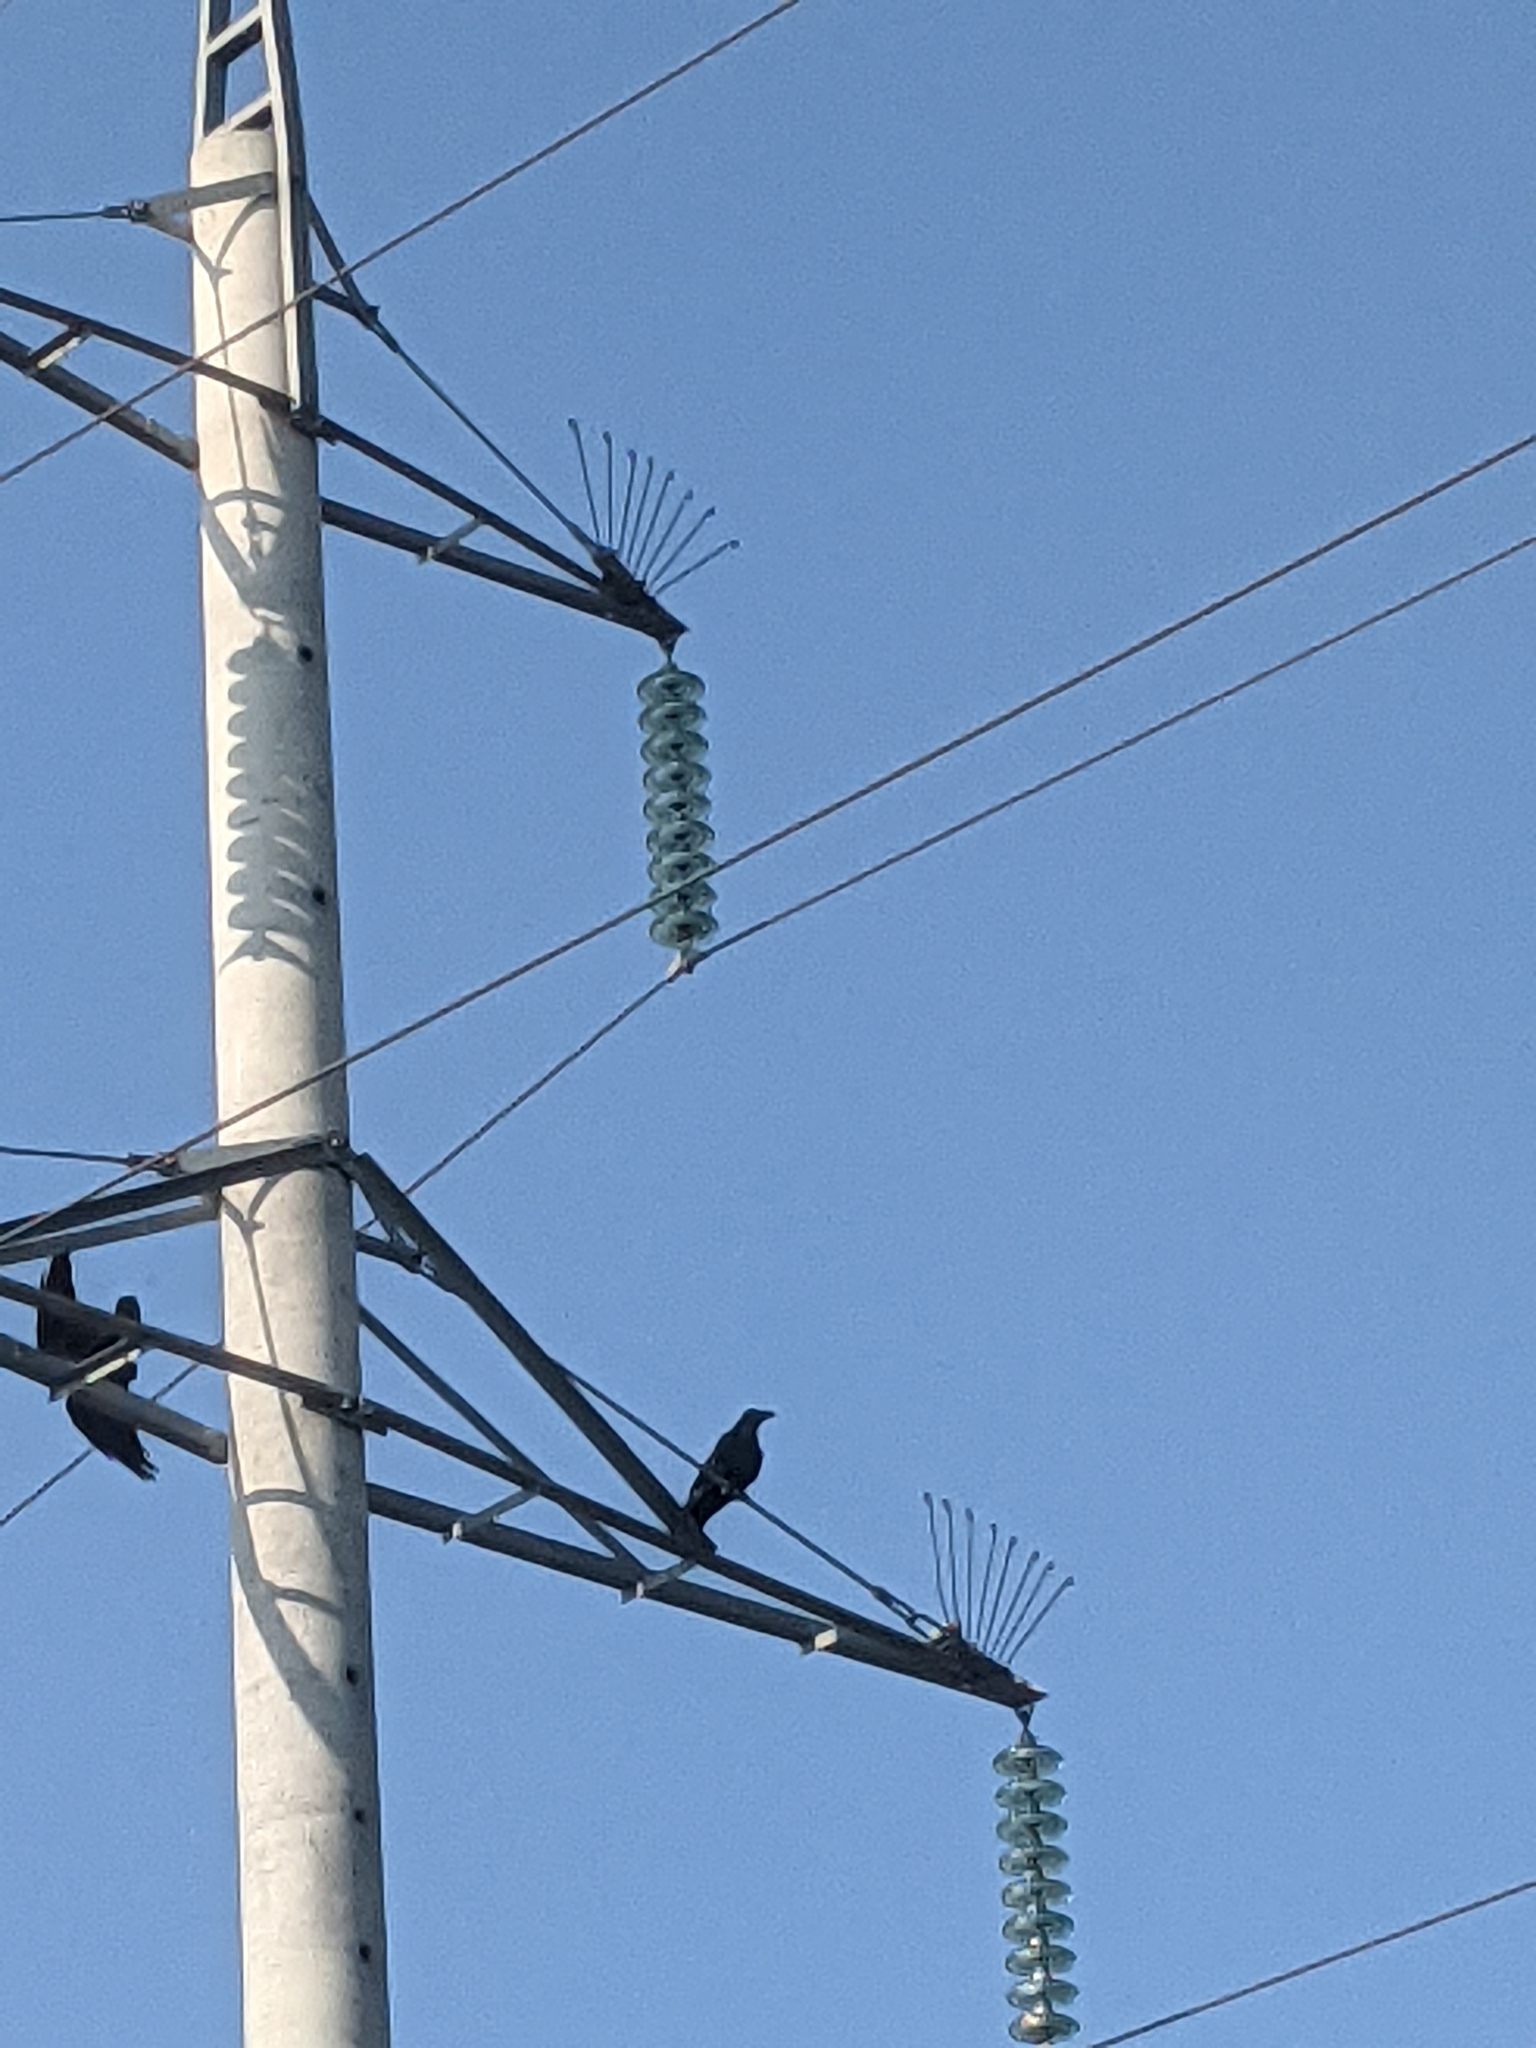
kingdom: Animalia
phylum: Chordata
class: Aves
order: Passeriformes
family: Corvidae
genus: Corvus
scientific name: Corvus corax
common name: Common raven
